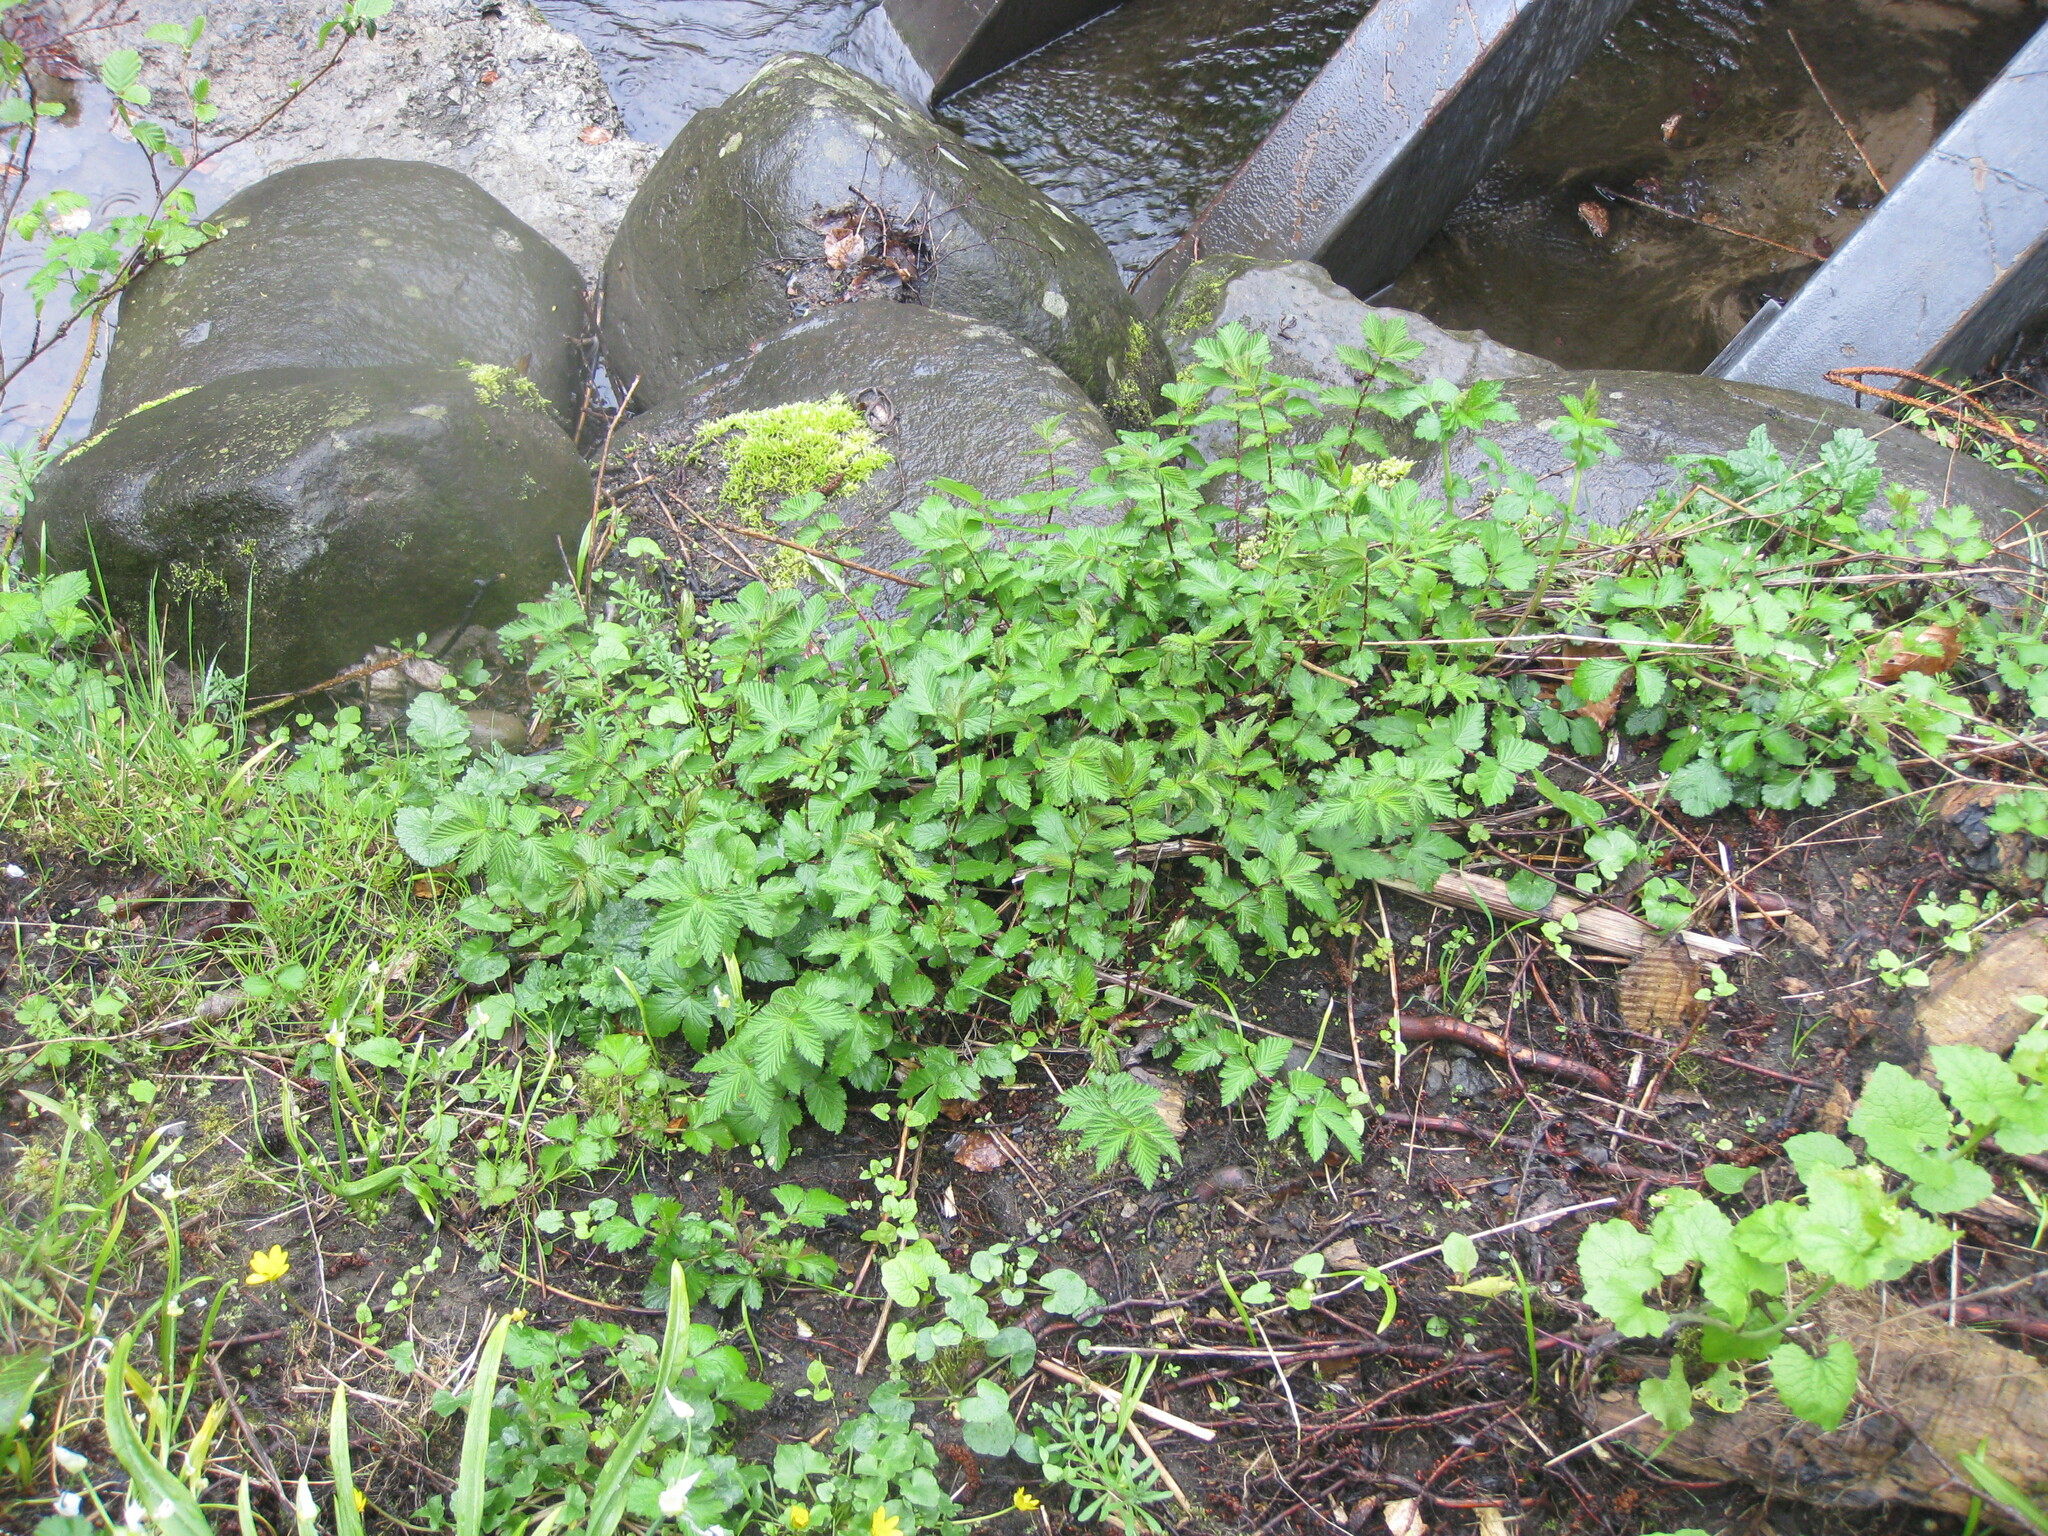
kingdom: Plantae
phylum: Tracheophyta
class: Magnoliopsida
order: Rosales
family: Rosaceae
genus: Filipendula
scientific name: Filipendula ulmaria
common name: Meadowsweet
